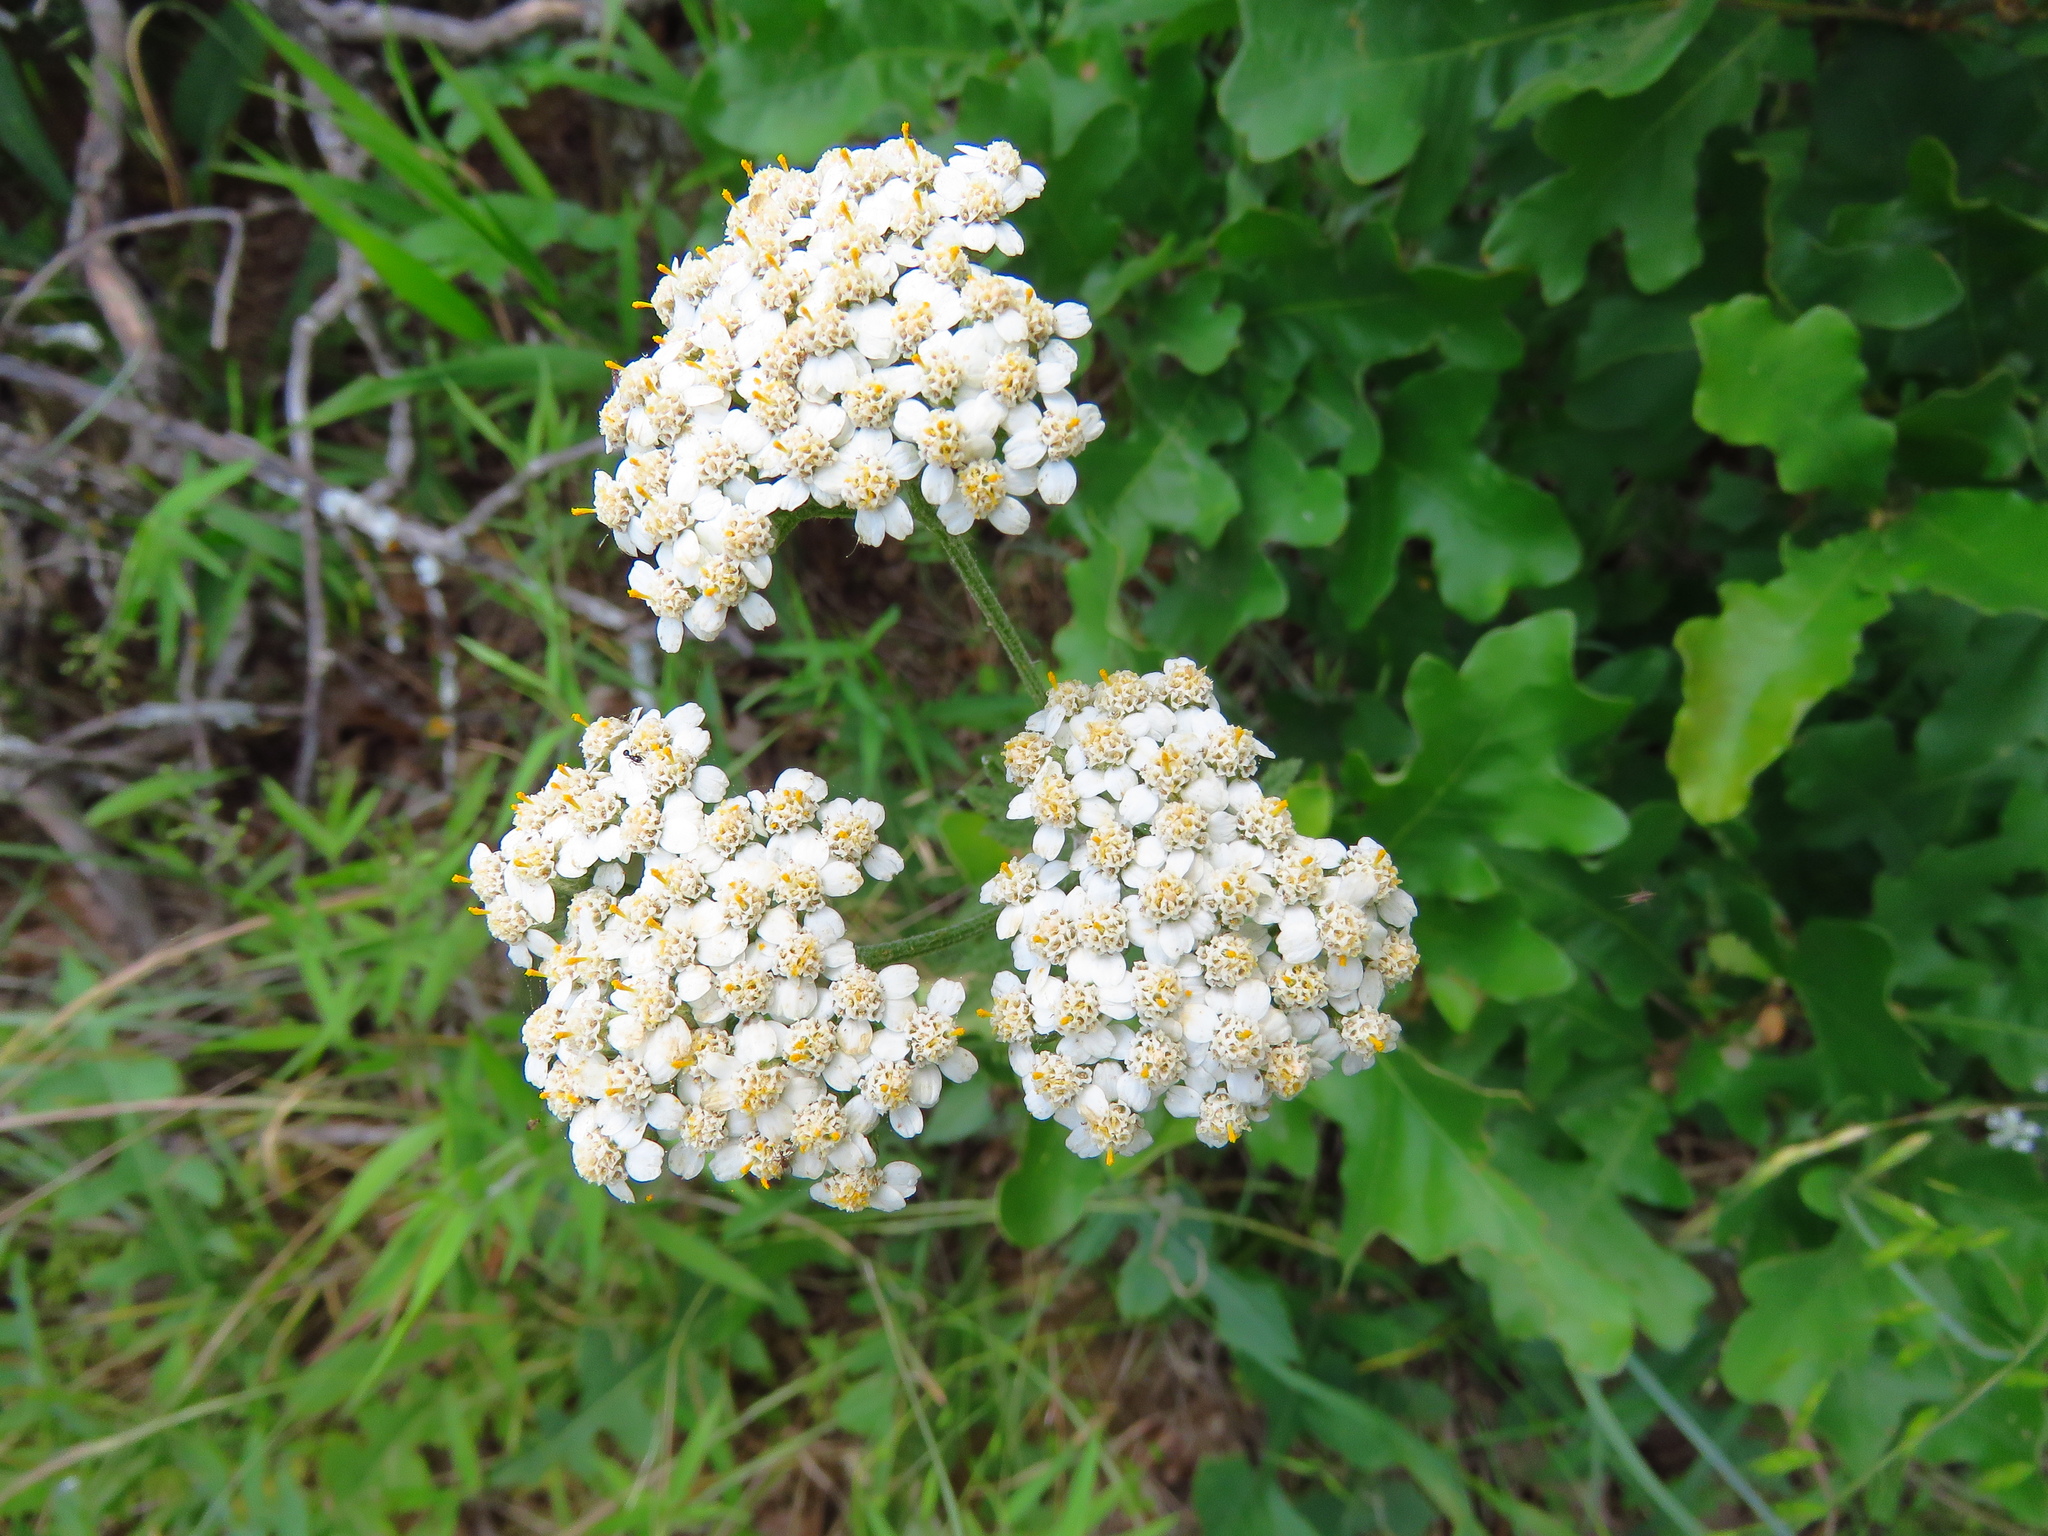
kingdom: Plantae
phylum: Tracheophyta
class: Magnoliopsida
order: Asterales
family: Asteraceae
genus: Achillea
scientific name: Achillea millefolium
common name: Yarrow
